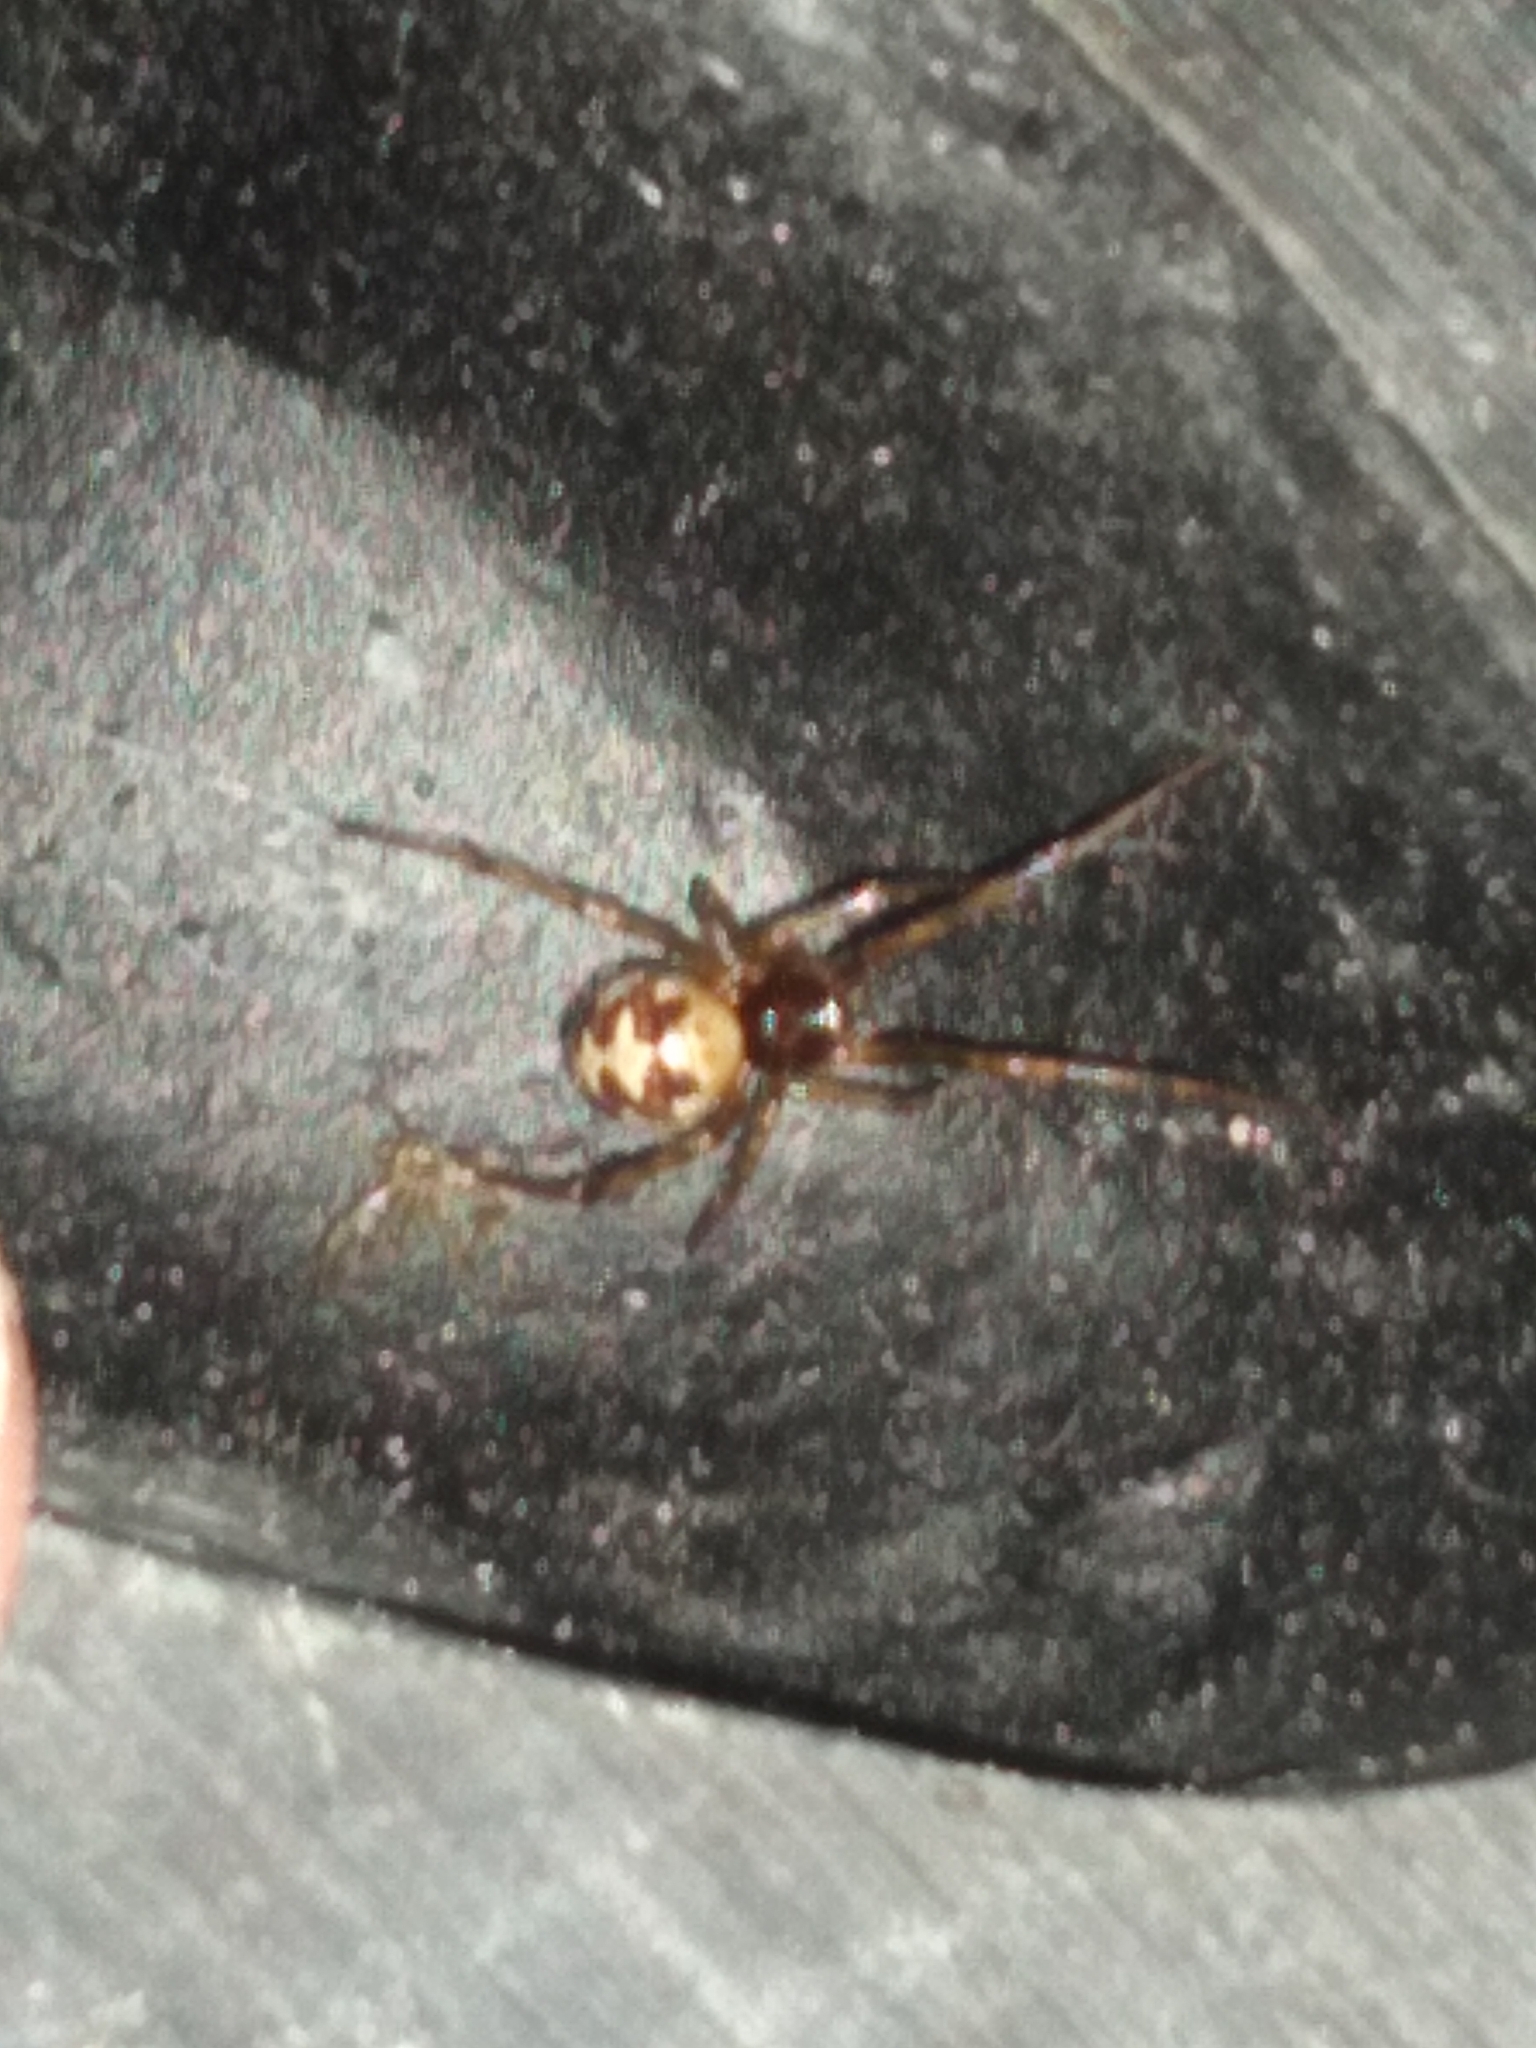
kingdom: Animalia
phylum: Arthropoda
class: Arachnida
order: Araneae
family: Theridiidae
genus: Steatoda
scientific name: Steatoda triangulosa
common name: Triangulate bud spider
